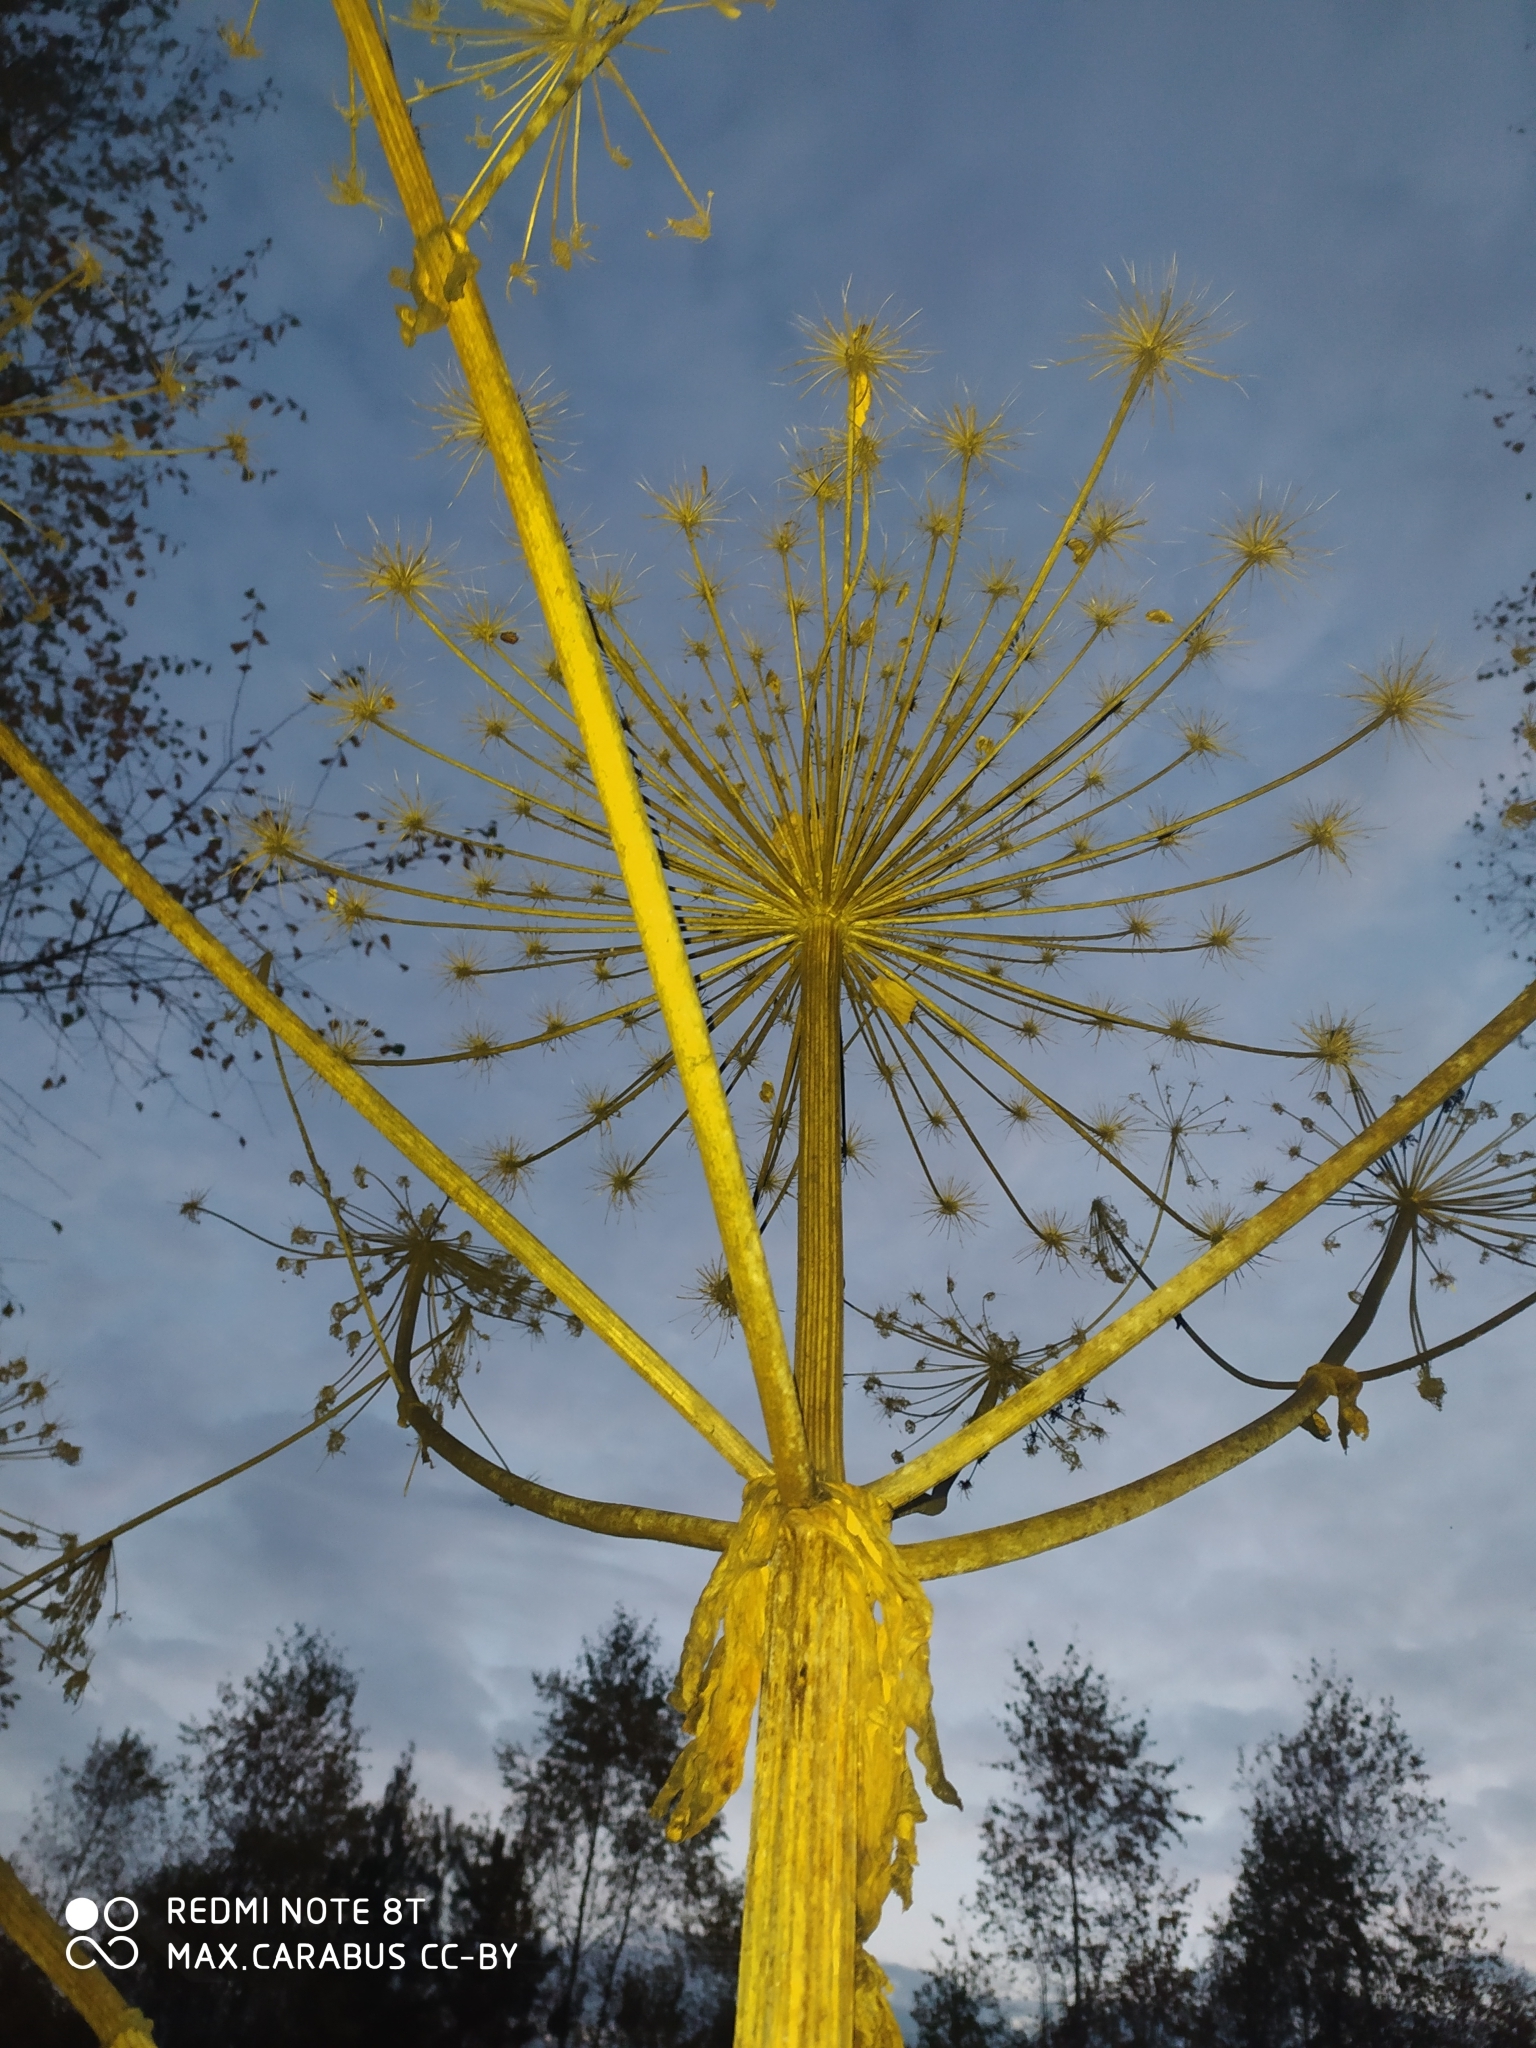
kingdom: Plantae
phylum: Tracheophyta
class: Magnoliopsida
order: Apiales
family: Apiaceae
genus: Heracleum
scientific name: Heracleum sosnowskyi
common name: Sosnowsky's hogweed
